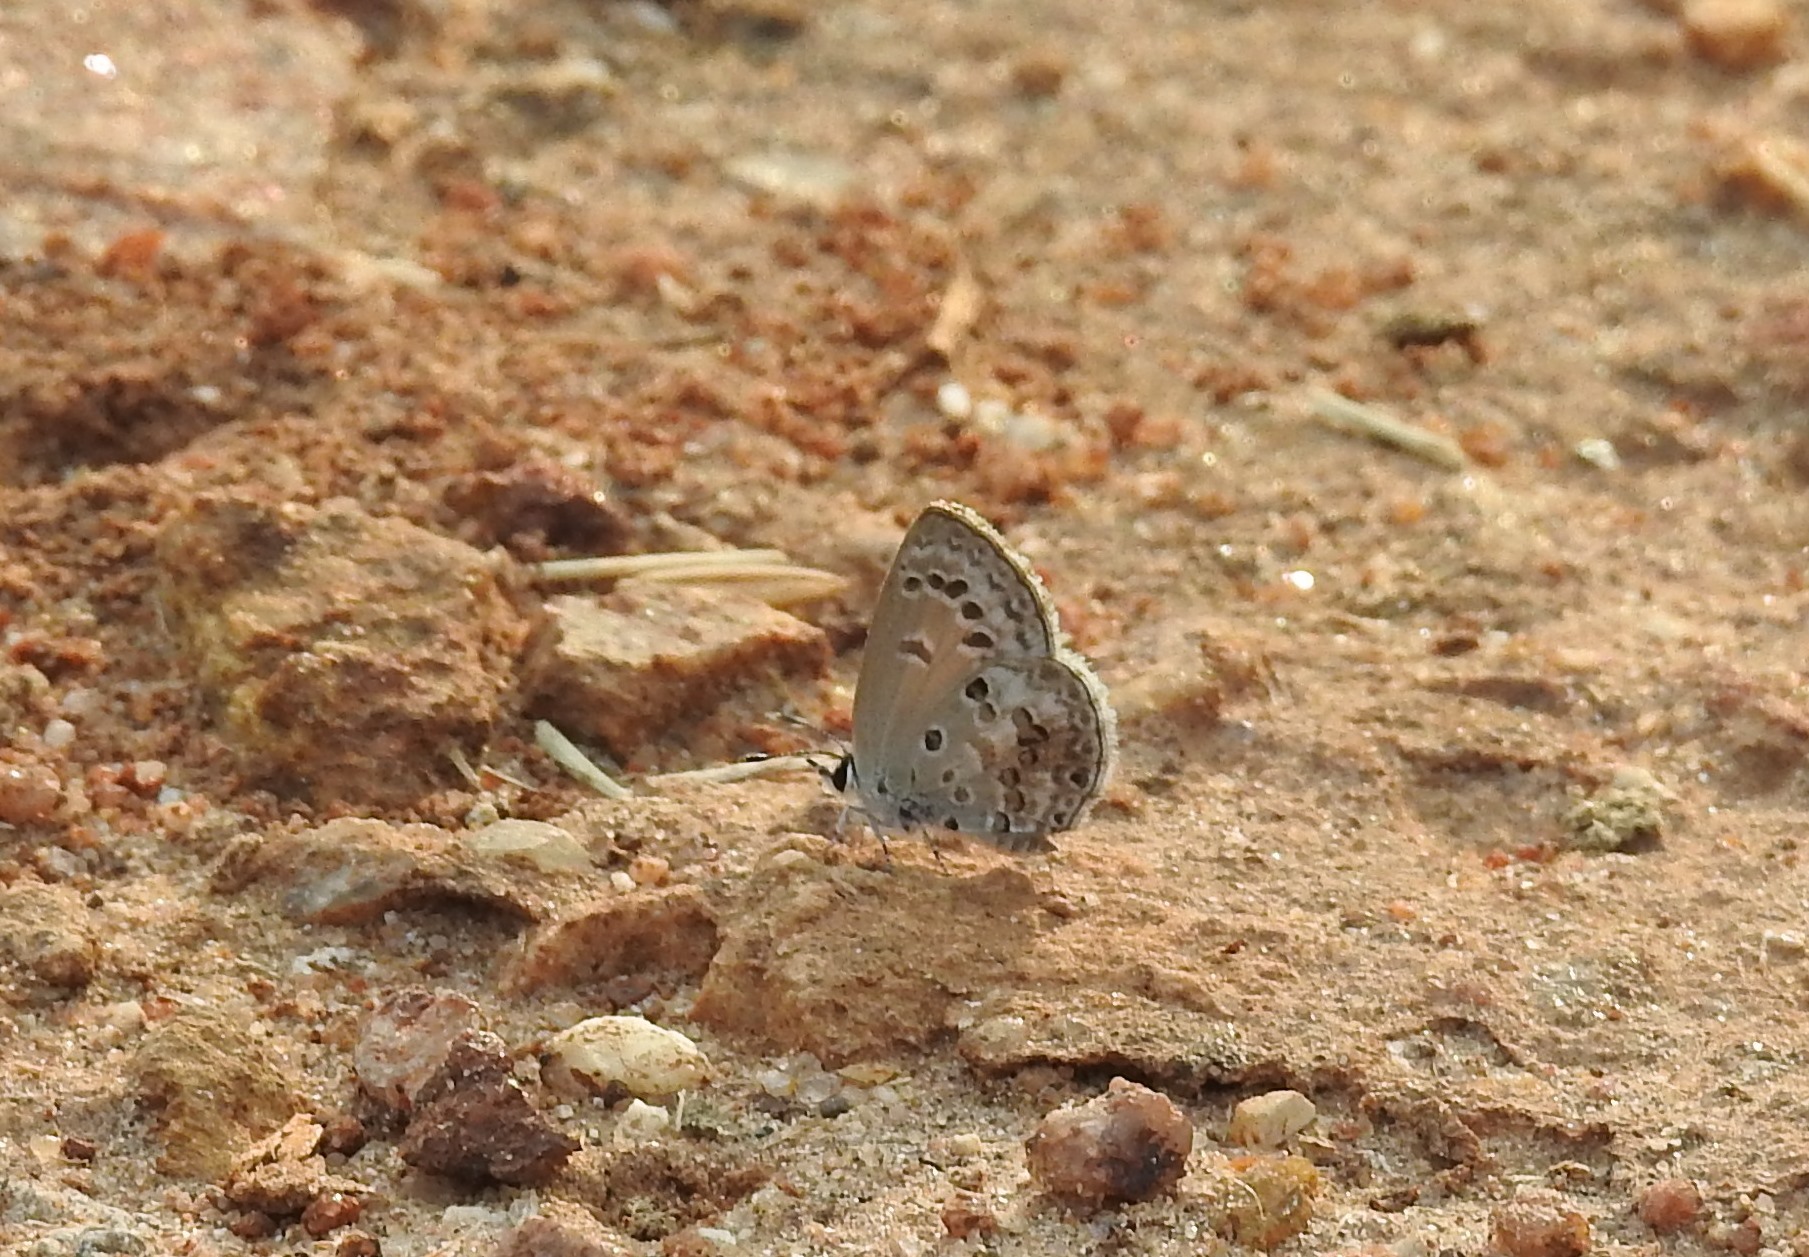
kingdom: Animalia
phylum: Arthropoda
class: Insecta
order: Lepidoptera
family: Lycaenidae
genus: Chilades
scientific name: Chilades laius
